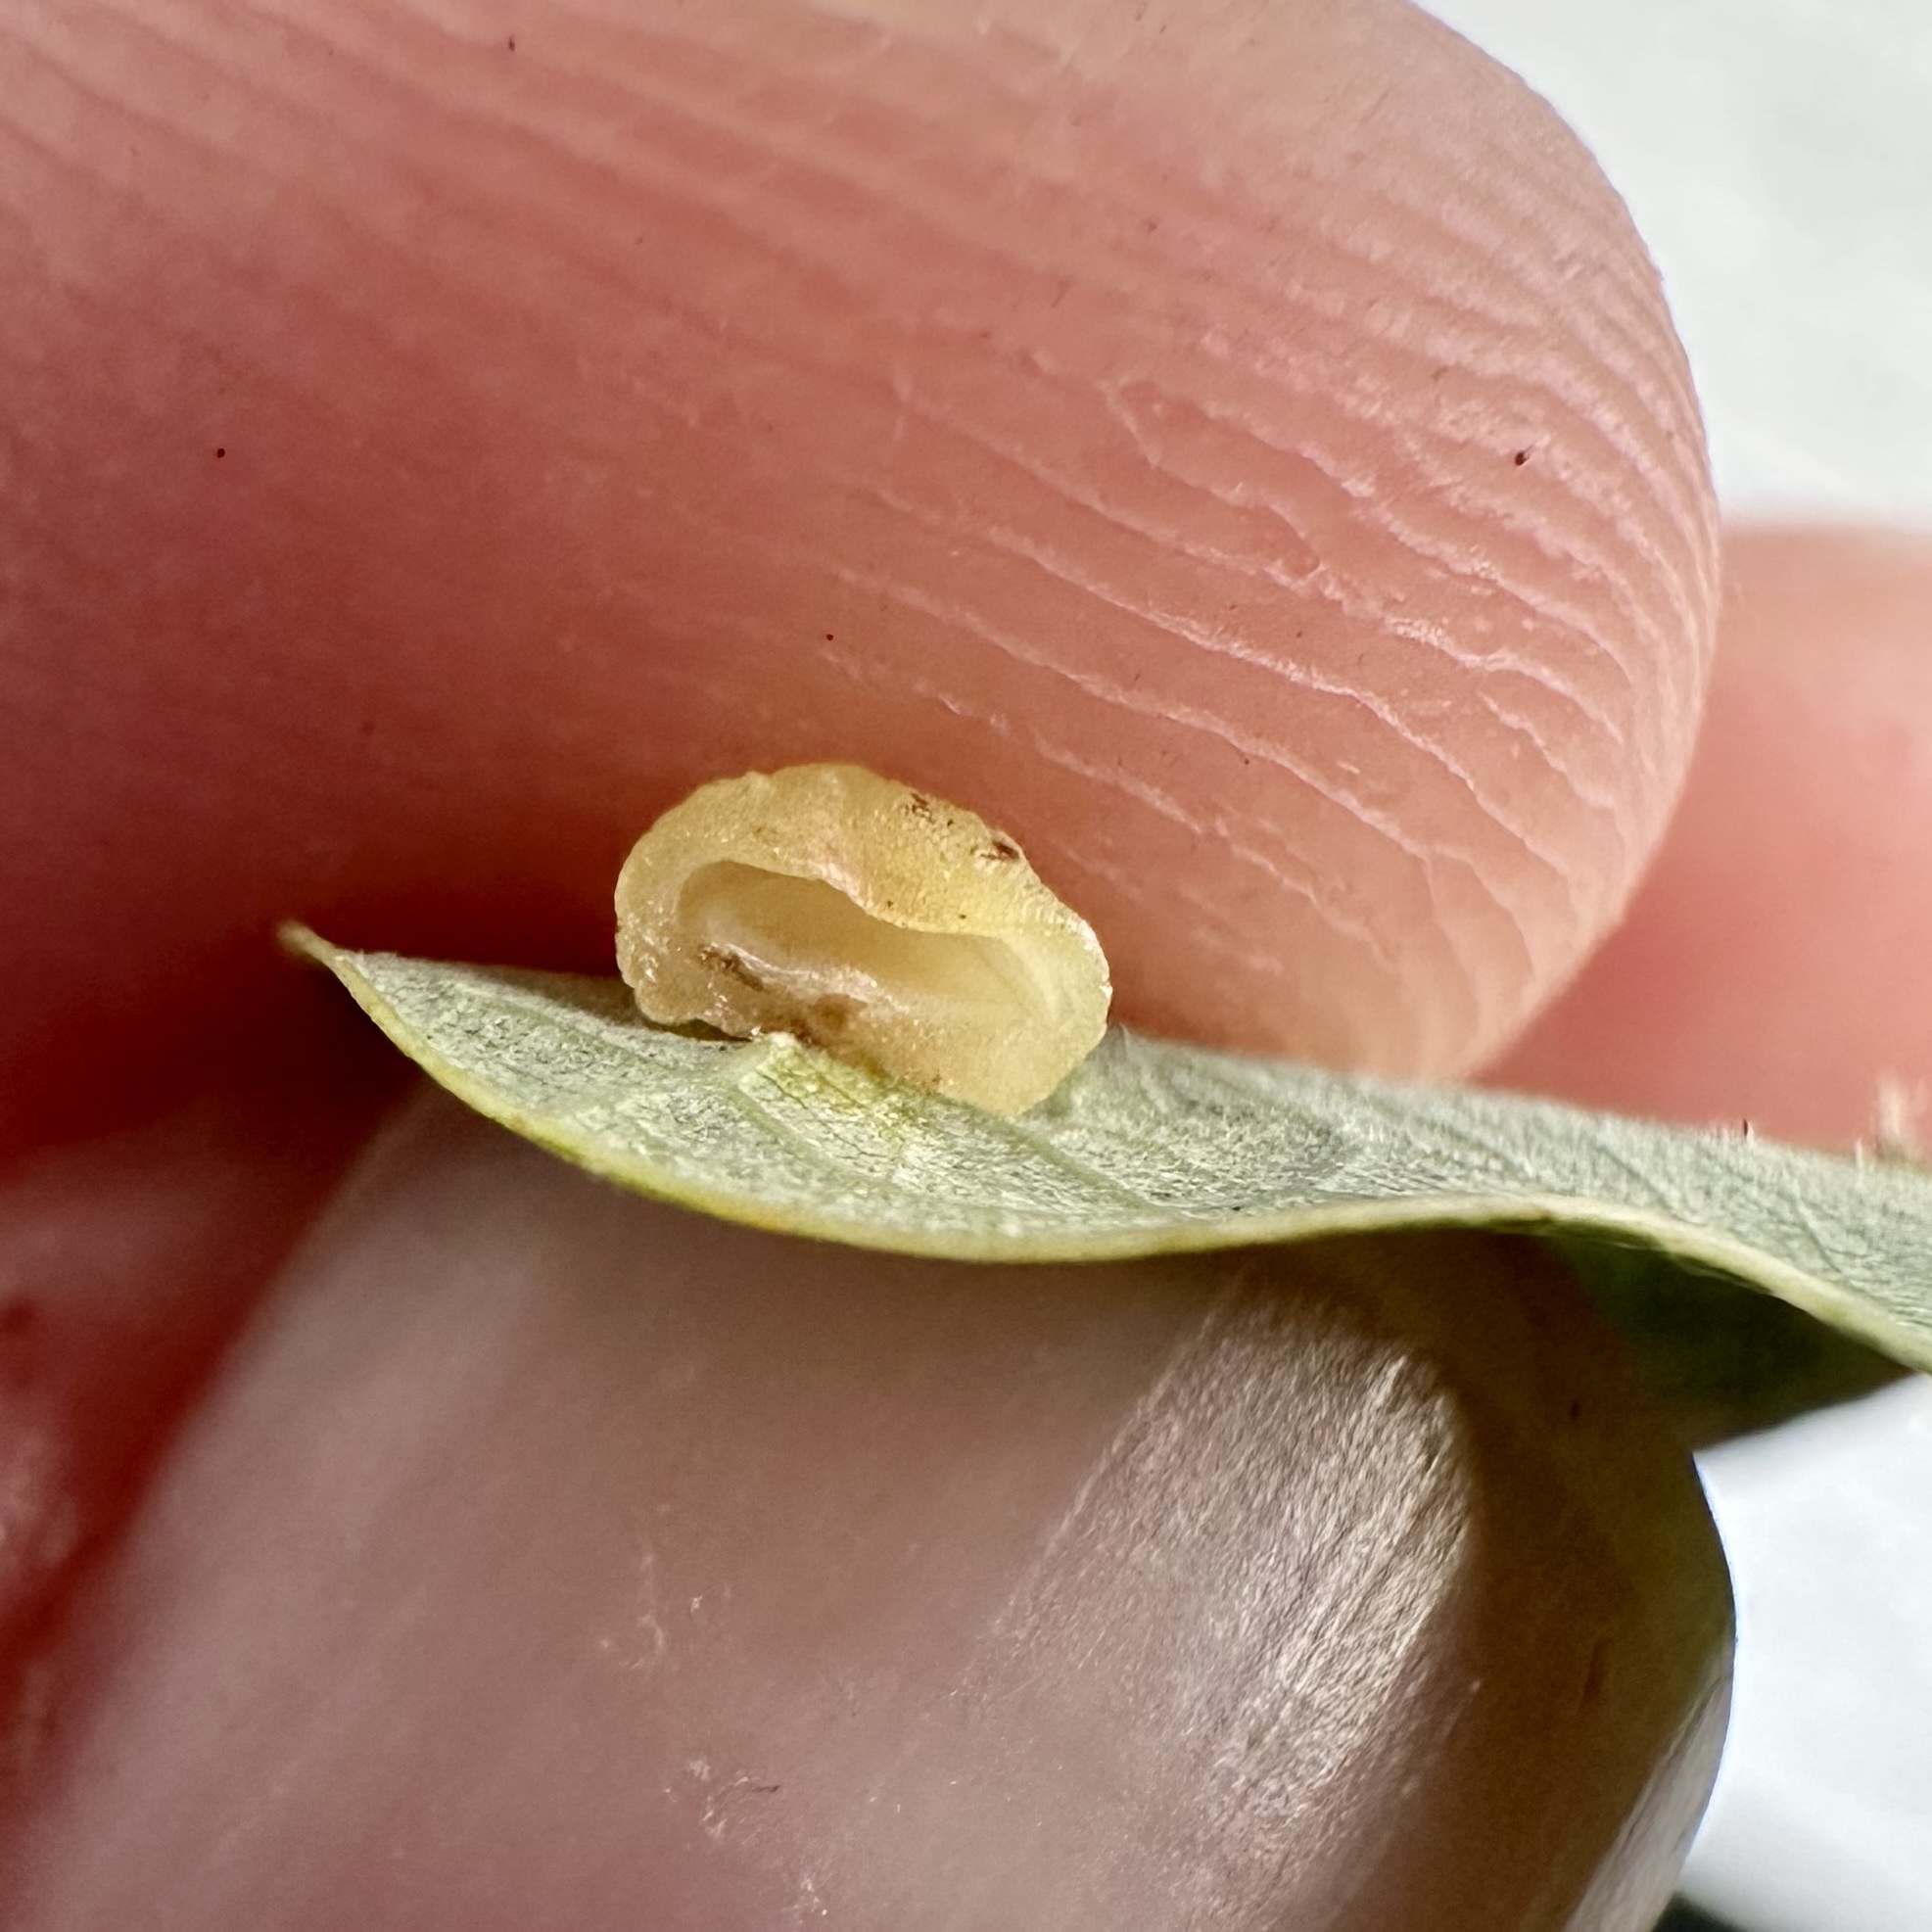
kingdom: Animalia
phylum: Arthropoda
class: Insecta
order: Hymenoptera
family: Cynipidae
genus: Andricus
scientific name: Andricus
